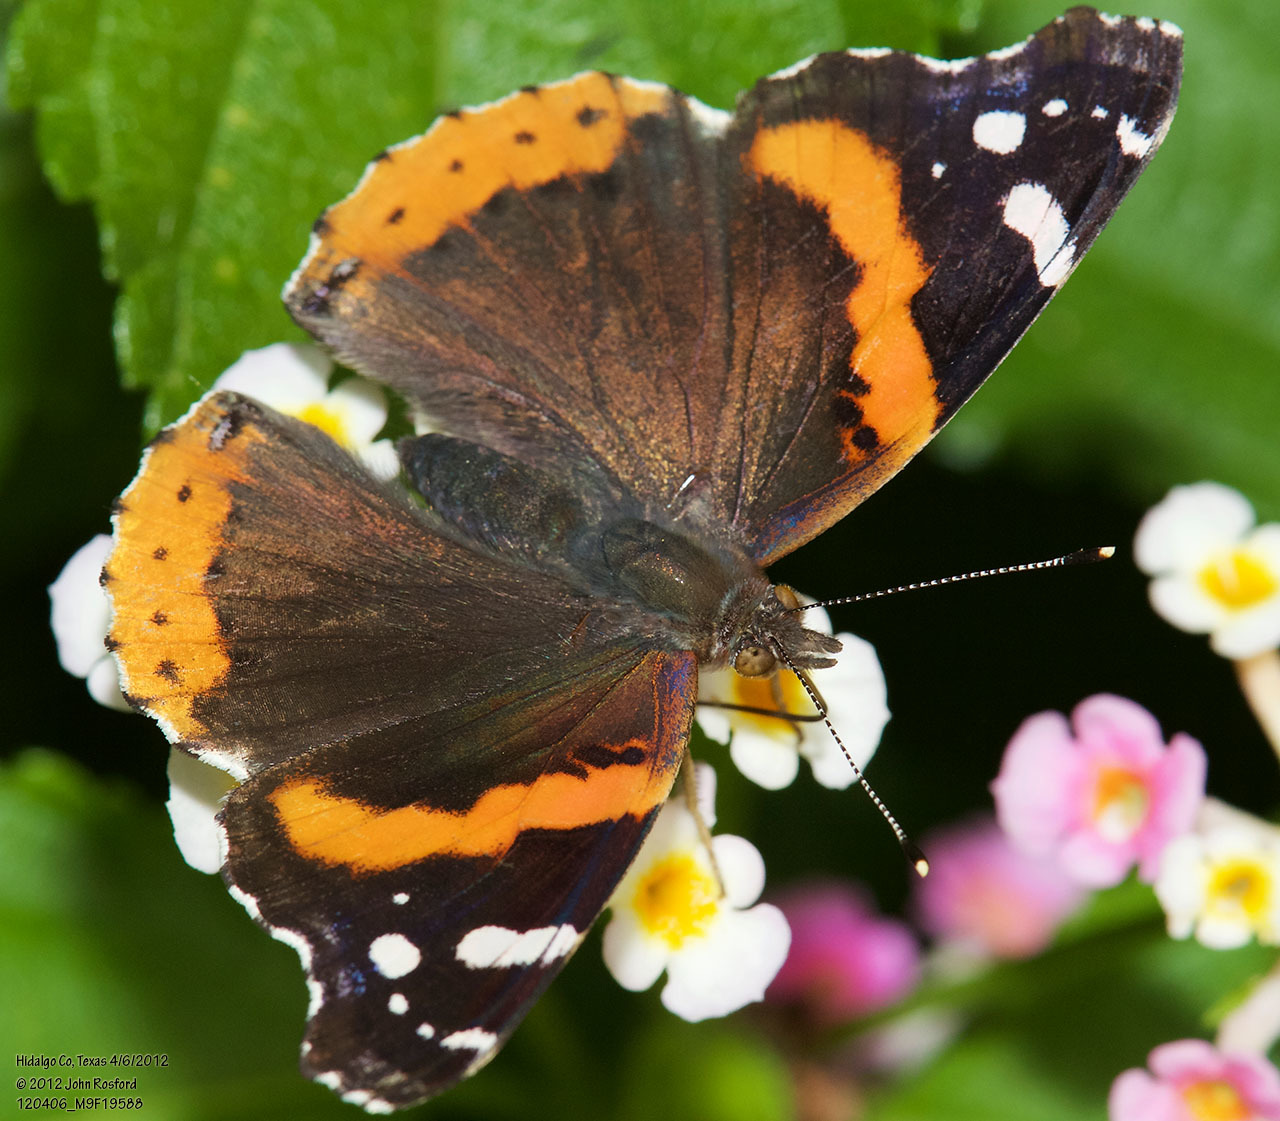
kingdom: Animalia
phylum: Arthropoda
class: Insecta
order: Lepidoptera
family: Nymphalidae
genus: Vanessa
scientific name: Vanessa atalanta
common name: Red admiral
